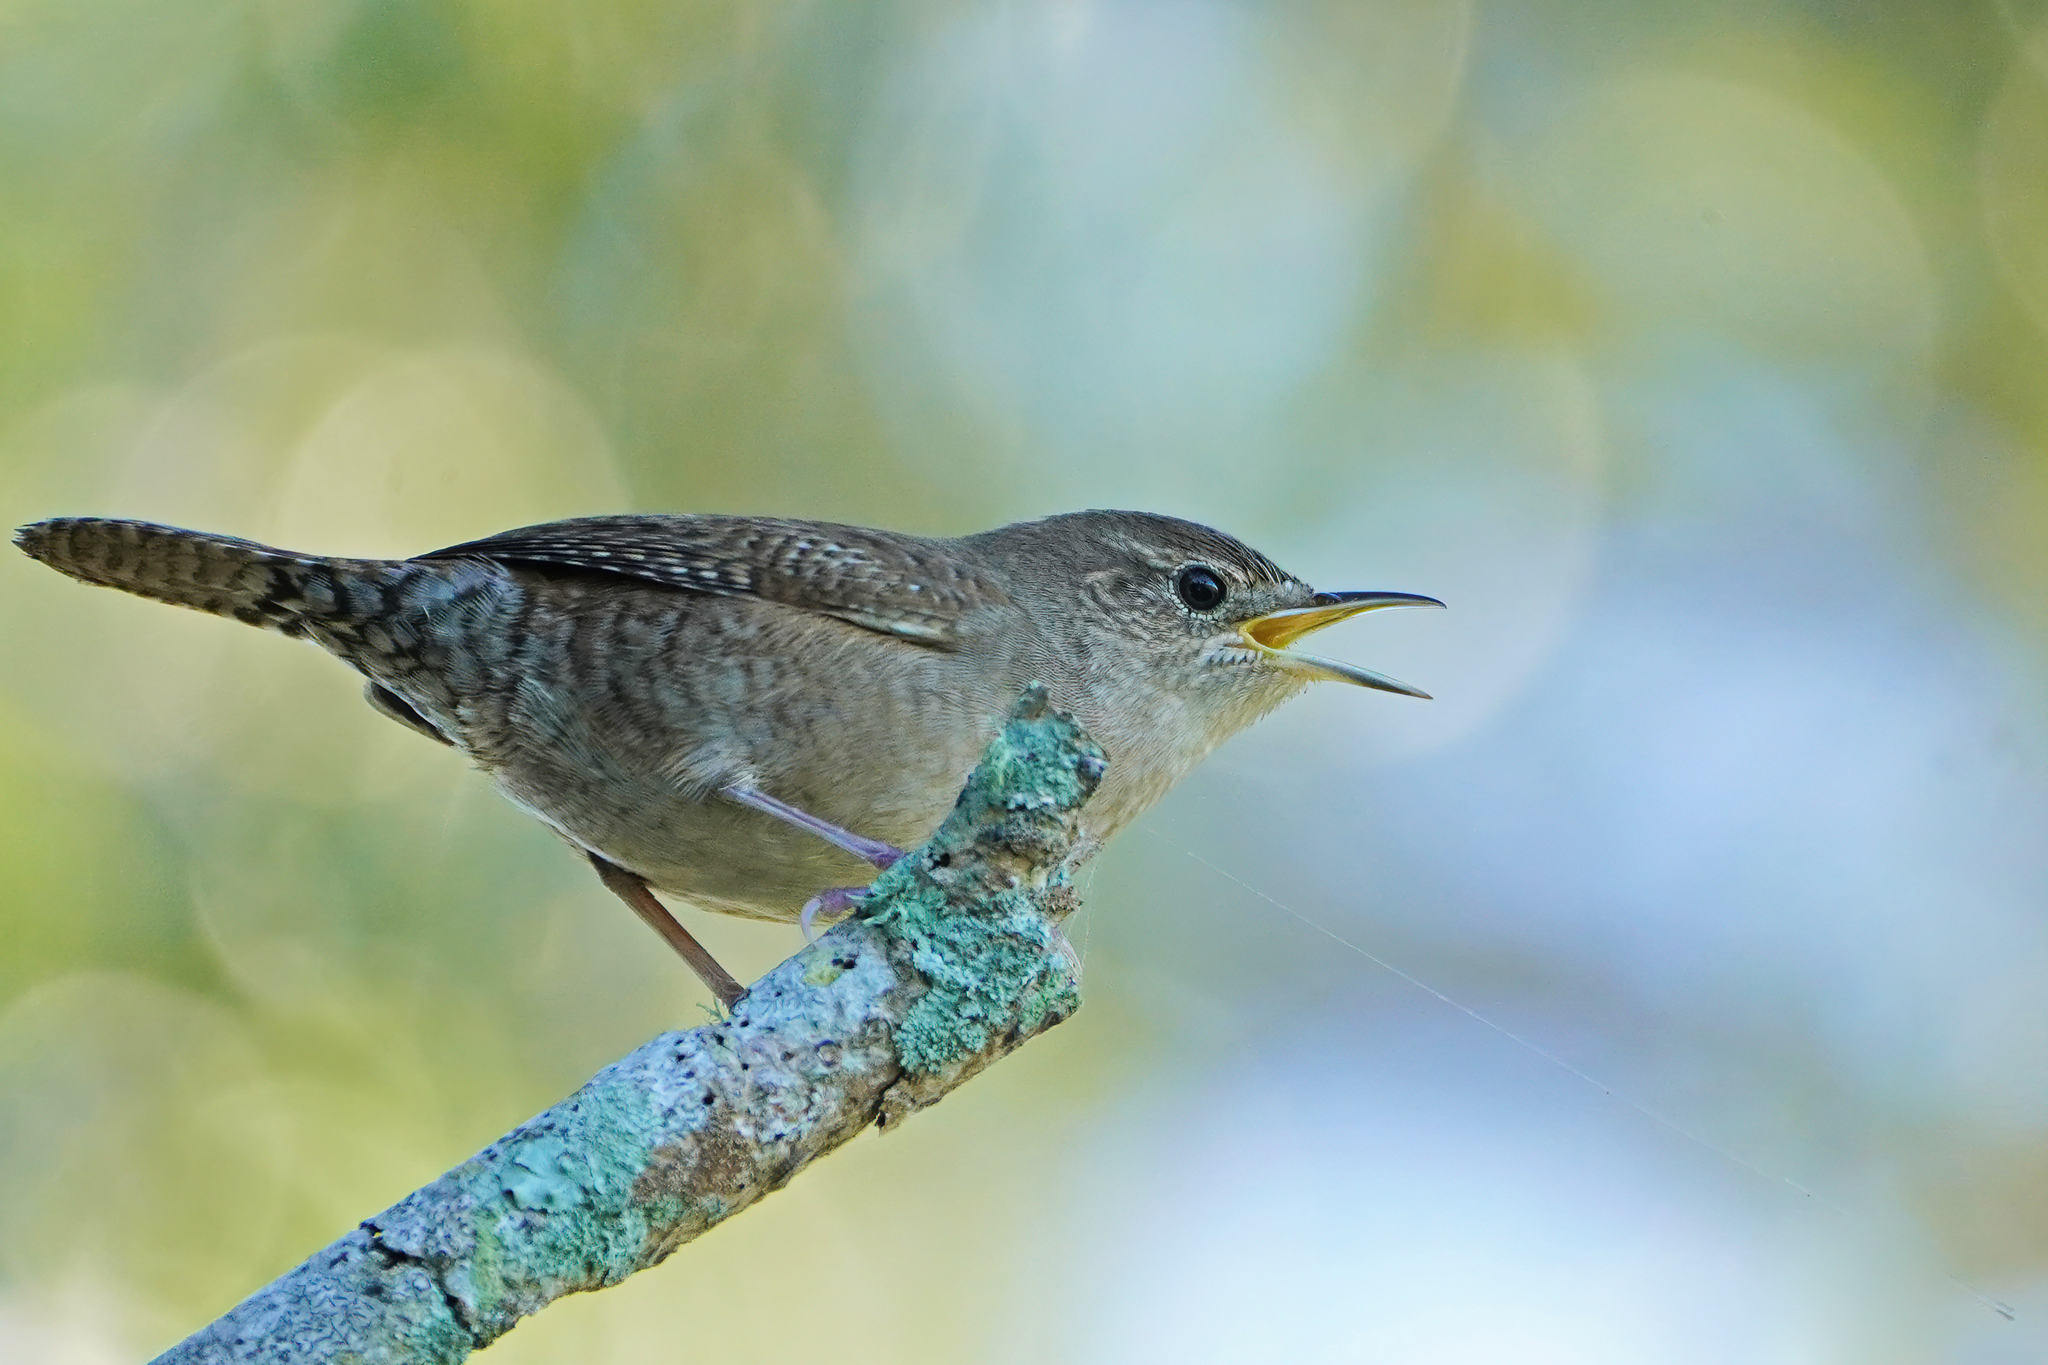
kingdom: Animalia
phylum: Chordata
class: Aves
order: Passeriformes
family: Troglodytidae
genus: Troglodytes
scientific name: Troglodytes aedon
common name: House wren
